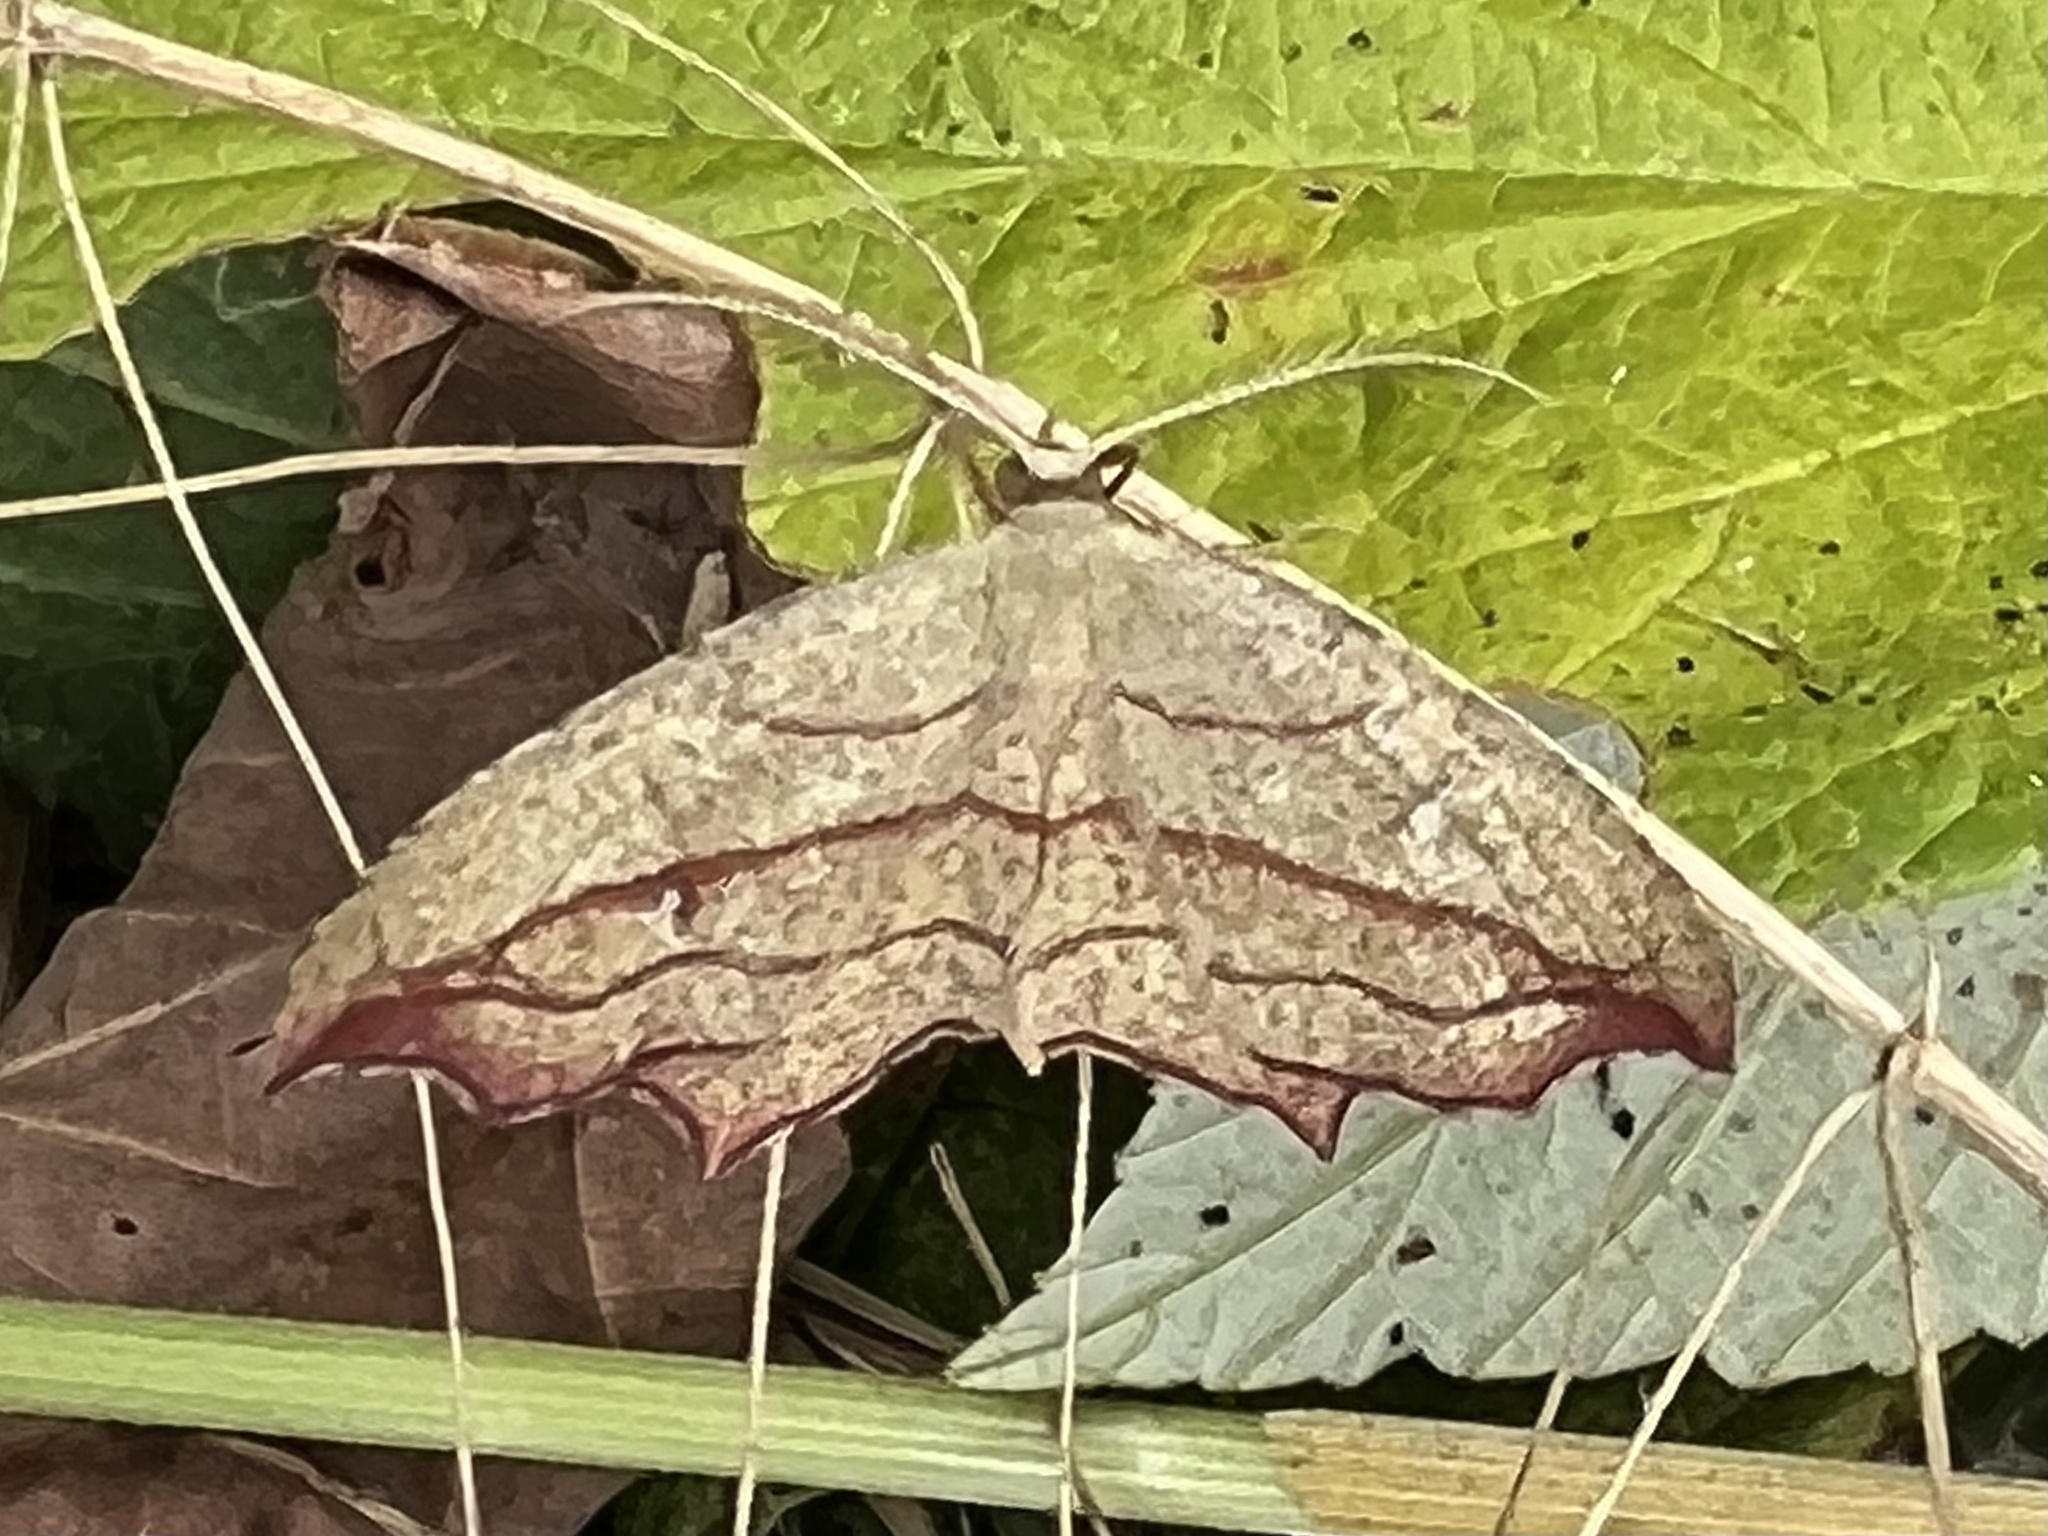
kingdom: Animalia
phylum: Arthropoda
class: Insecta
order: Lepidoptera
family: Geometridae
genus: Timandra
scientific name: Timandra amaturaria
